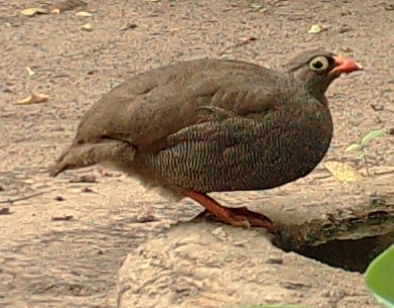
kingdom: Animalia
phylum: Chordata
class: Aves
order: Galliformes
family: Phasianidae
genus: Pternistis
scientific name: Pternistis adspersus
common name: Red-billed spurfowl
